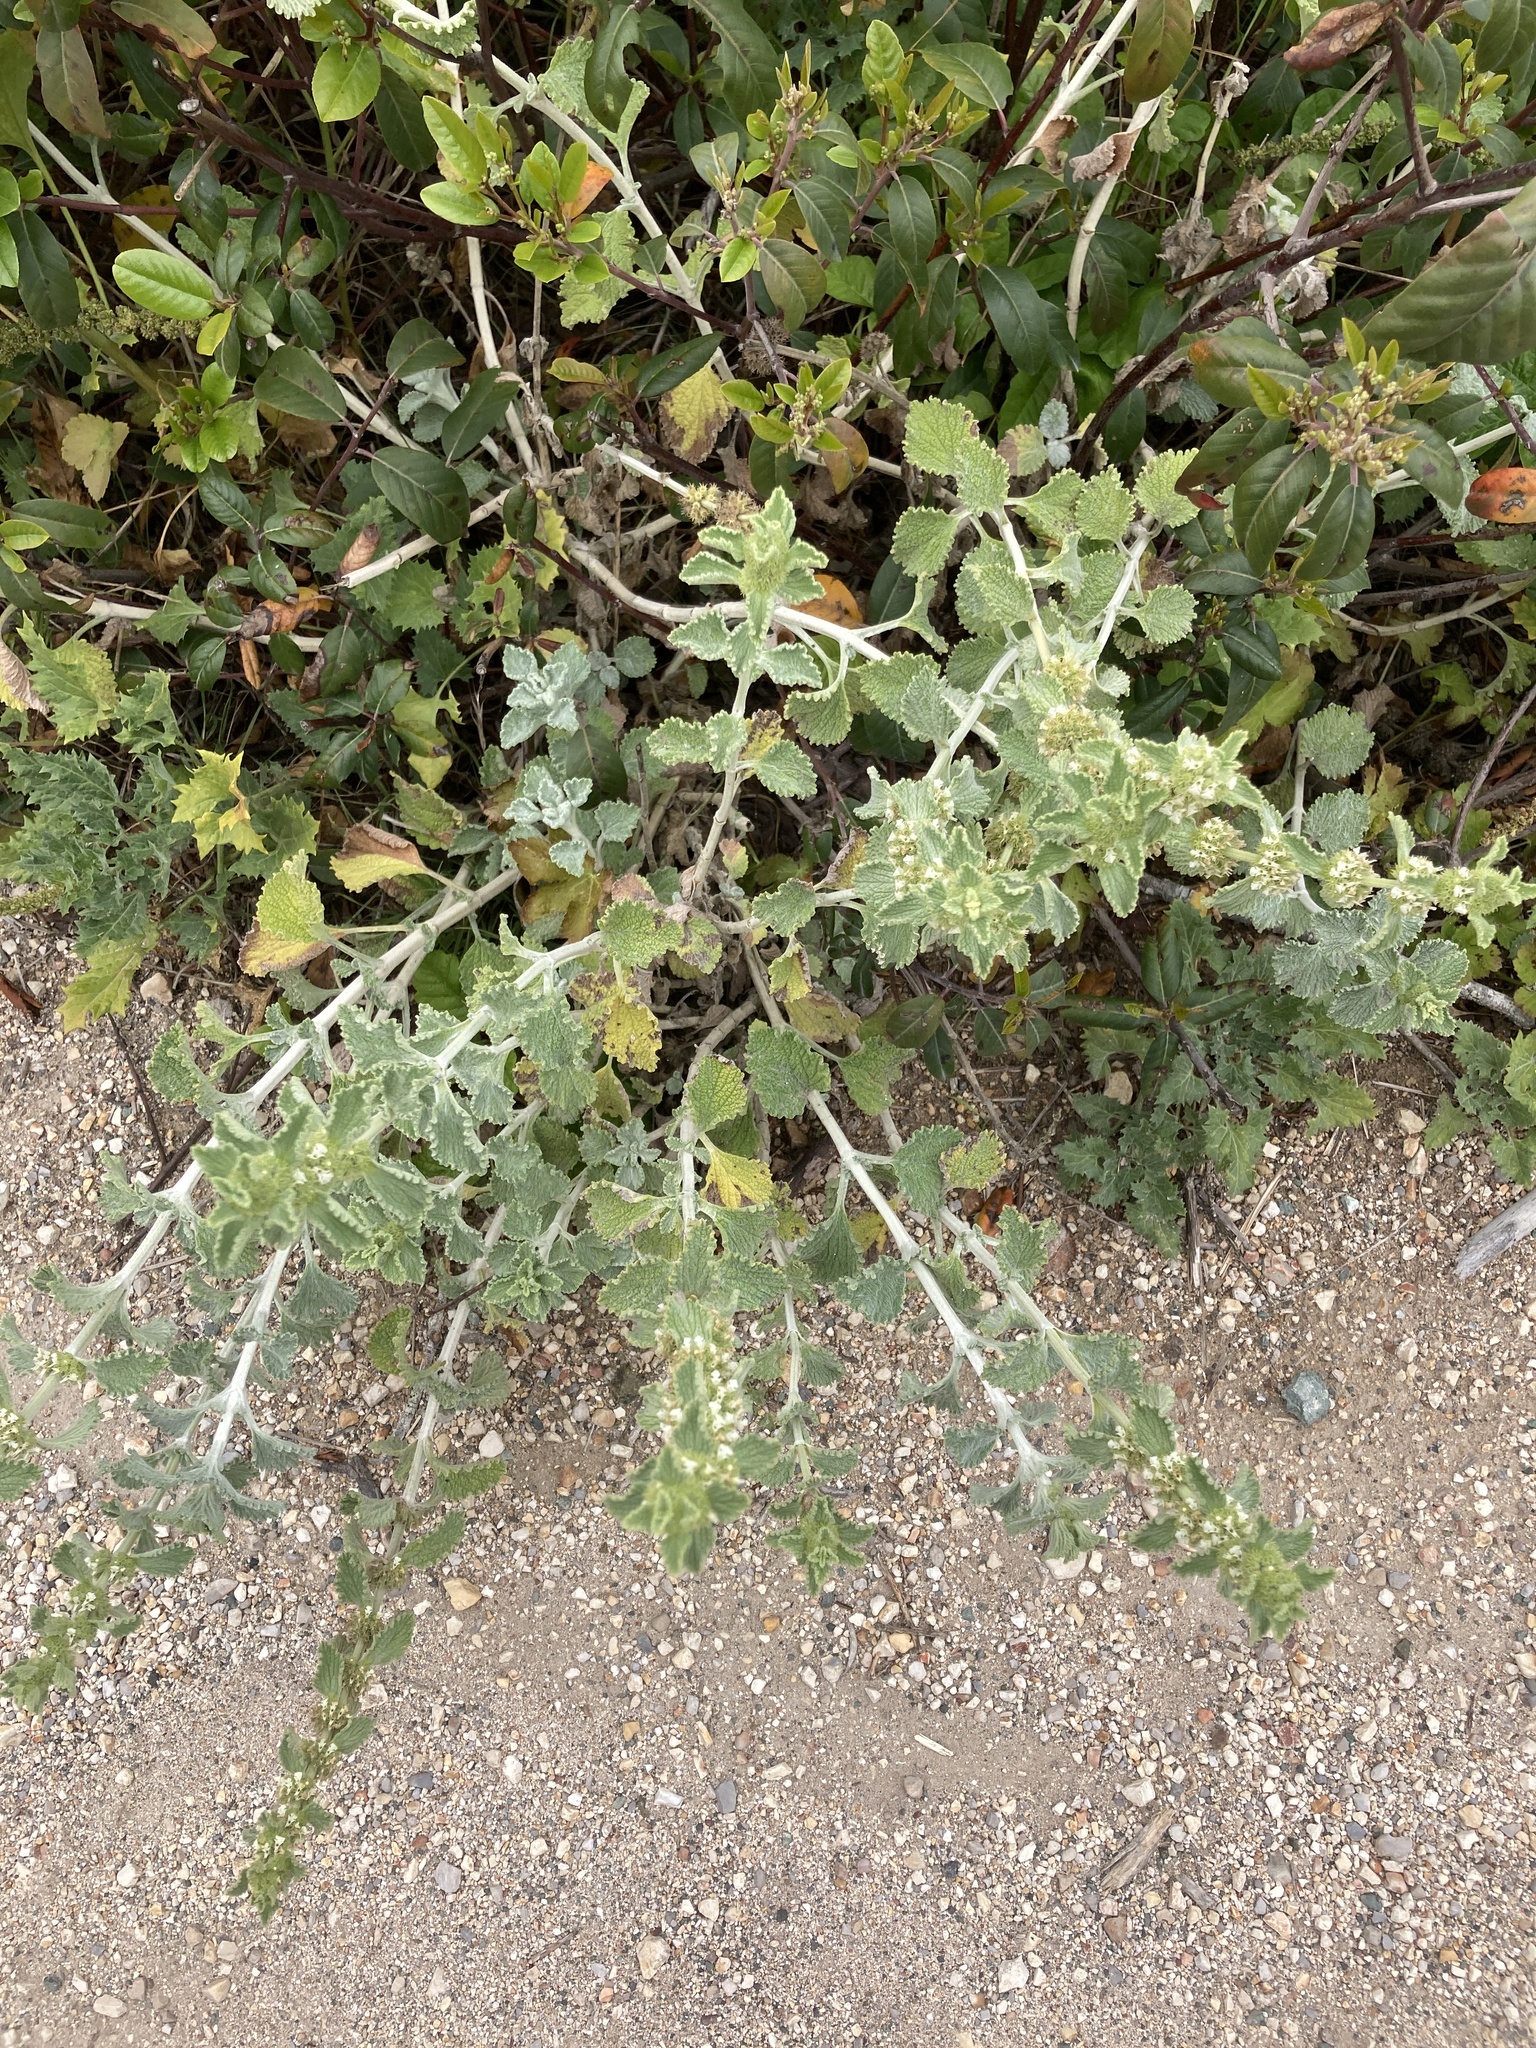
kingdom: Plantae
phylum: Tracheophyta
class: Magnoliopsida
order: Lamiales
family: Lamiaceae
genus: Marrubium
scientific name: Marrubium vulgare
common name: Horehound
